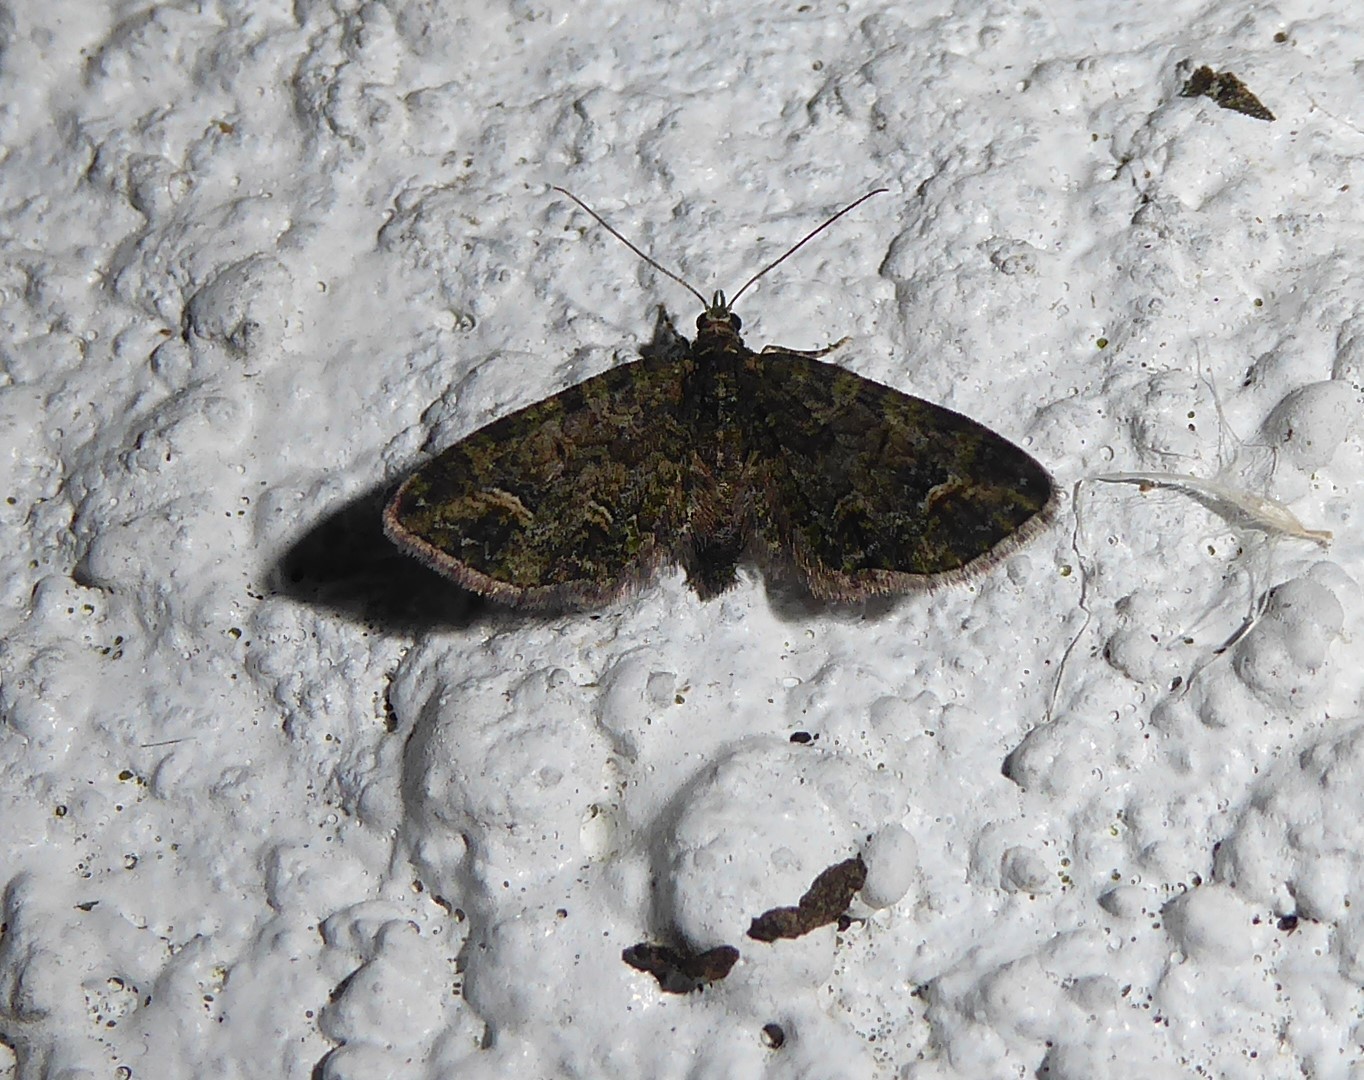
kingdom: Animalia
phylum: Arthropoda
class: Insecta
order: Lepidoptera
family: Geometridae
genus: Idaea
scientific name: Idaea mutanda
